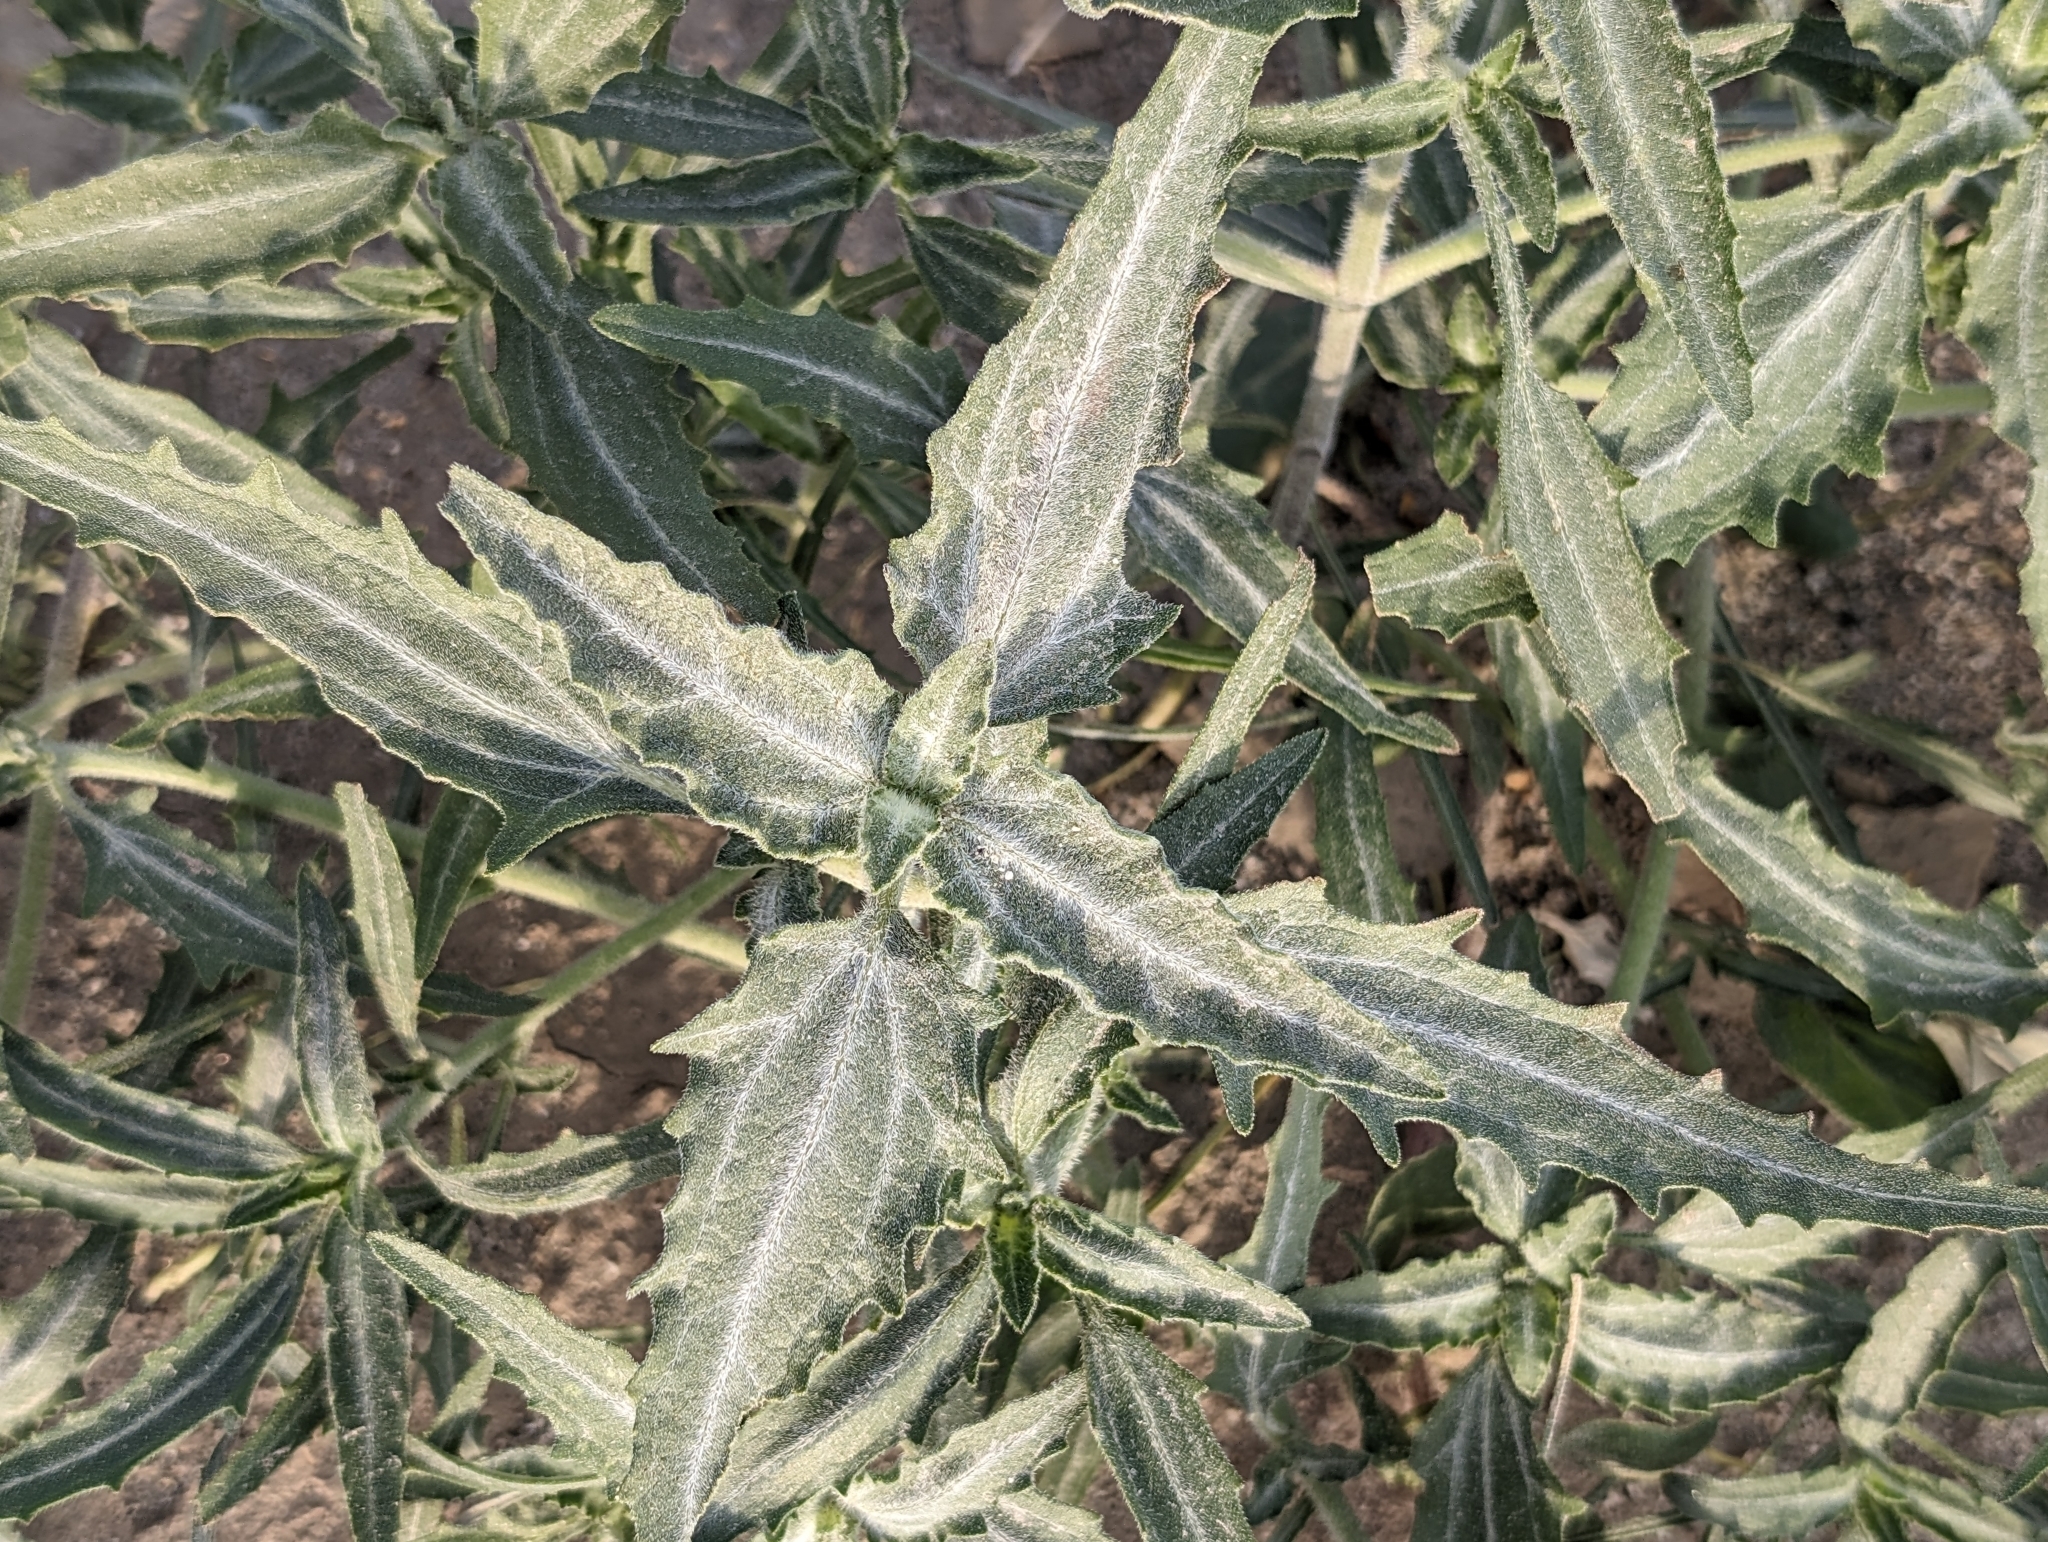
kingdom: Plantae
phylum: Tracheophyta
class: Magnoliopsida
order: Asterales
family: Asteraceae
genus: Dicoria
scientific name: Dicoria canescens
